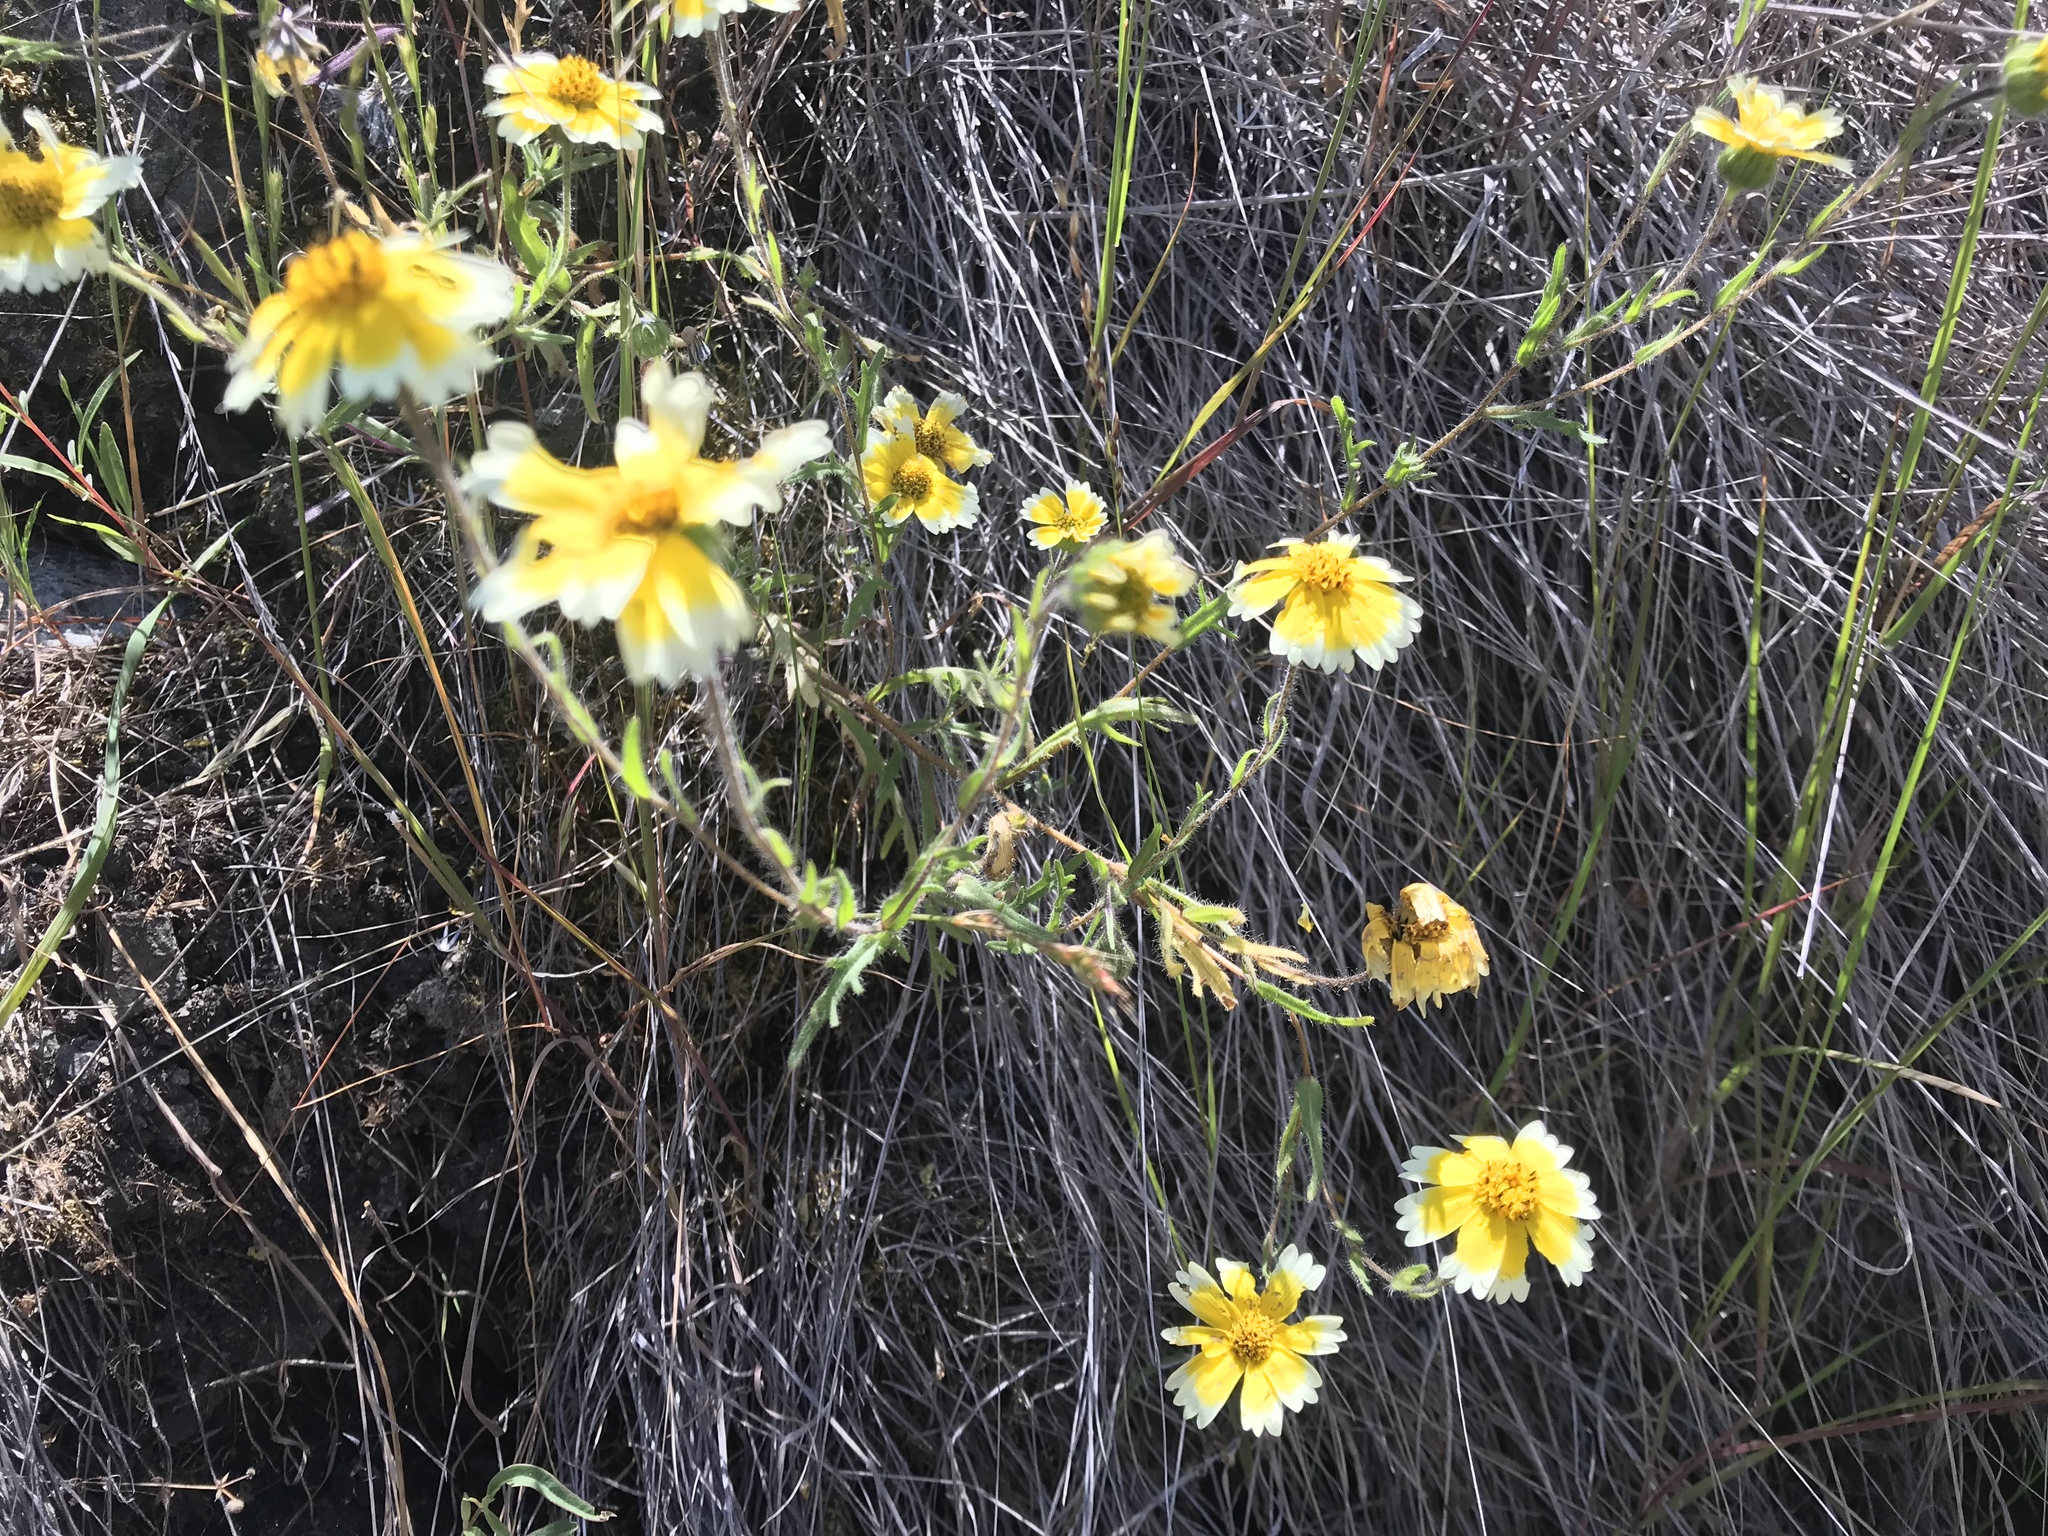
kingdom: Plantae
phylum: Tracheophyta
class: Magnoliopsida
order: Asterales
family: Asteraceae
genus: Layia
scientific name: Layia gaillardioides
